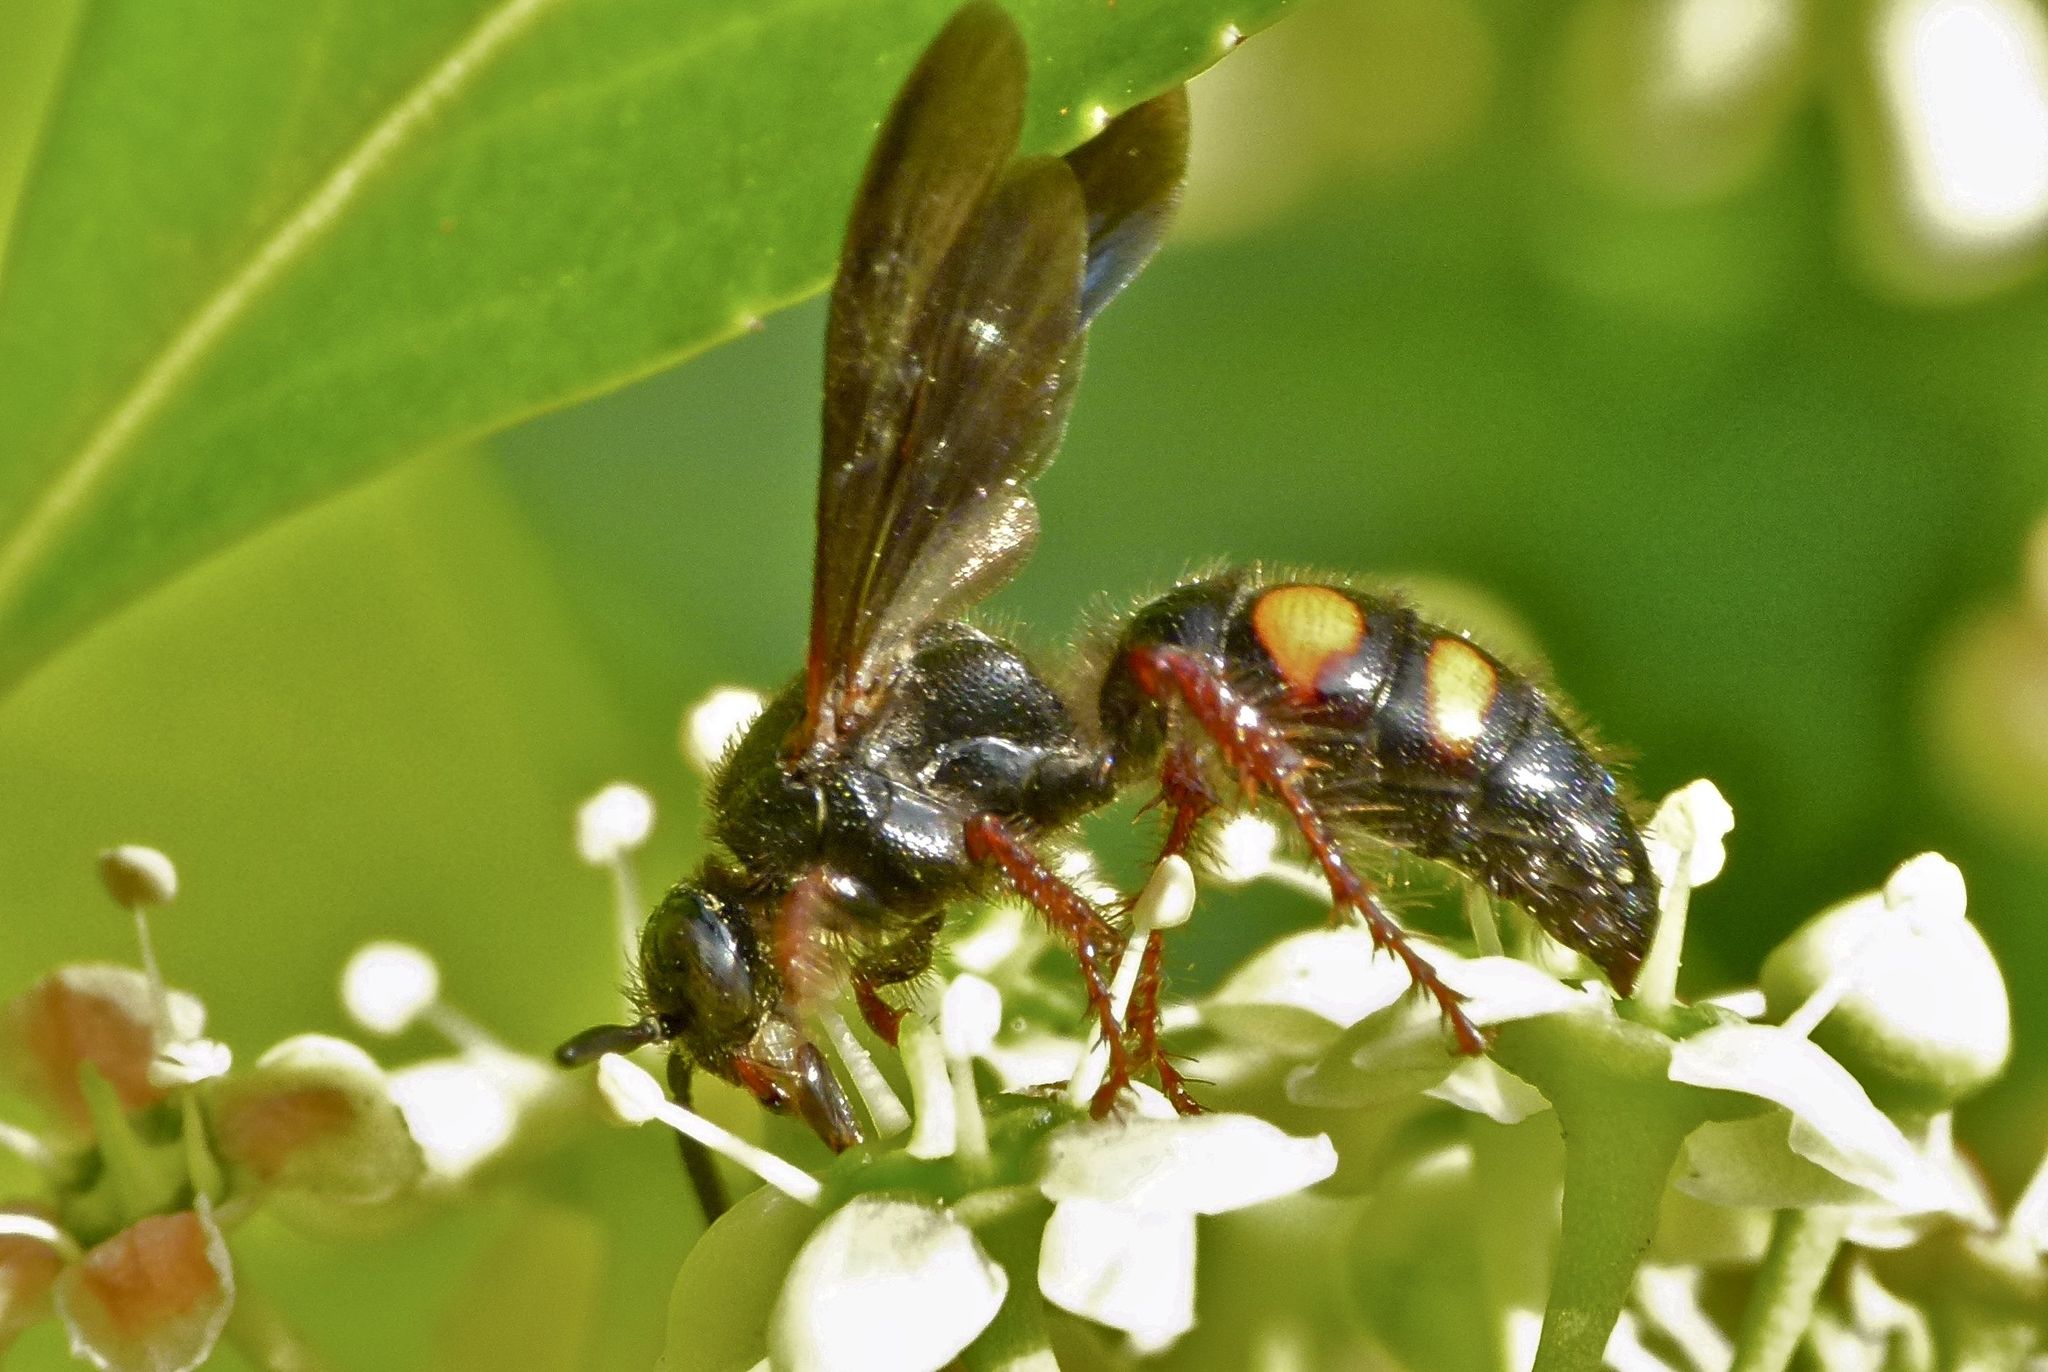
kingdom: Animalia
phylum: Arthropoda
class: Insecta
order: Hymenoptera
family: Scoliidae
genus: Scolia
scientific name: Scolia nobilitata
